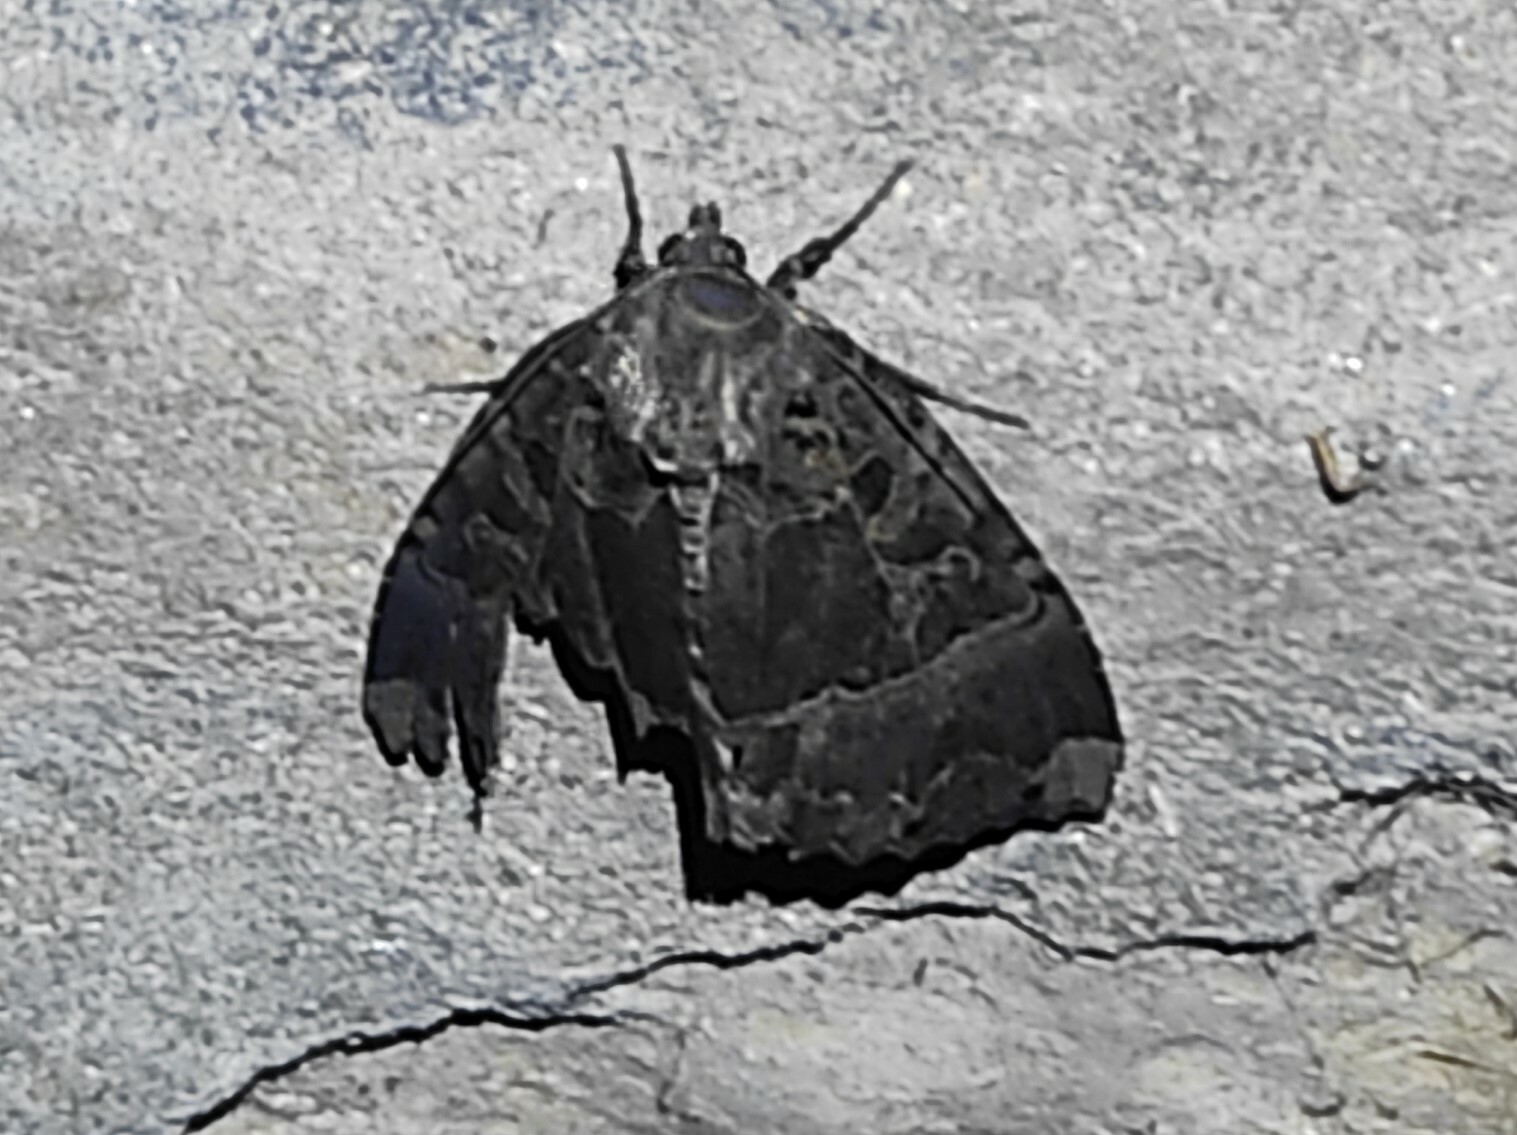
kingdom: Animalia
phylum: Arthropoda
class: Insecta
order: Lepidoptera
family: Noctuidae
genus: Mormo
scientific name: Mormo maura
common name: Old lady
